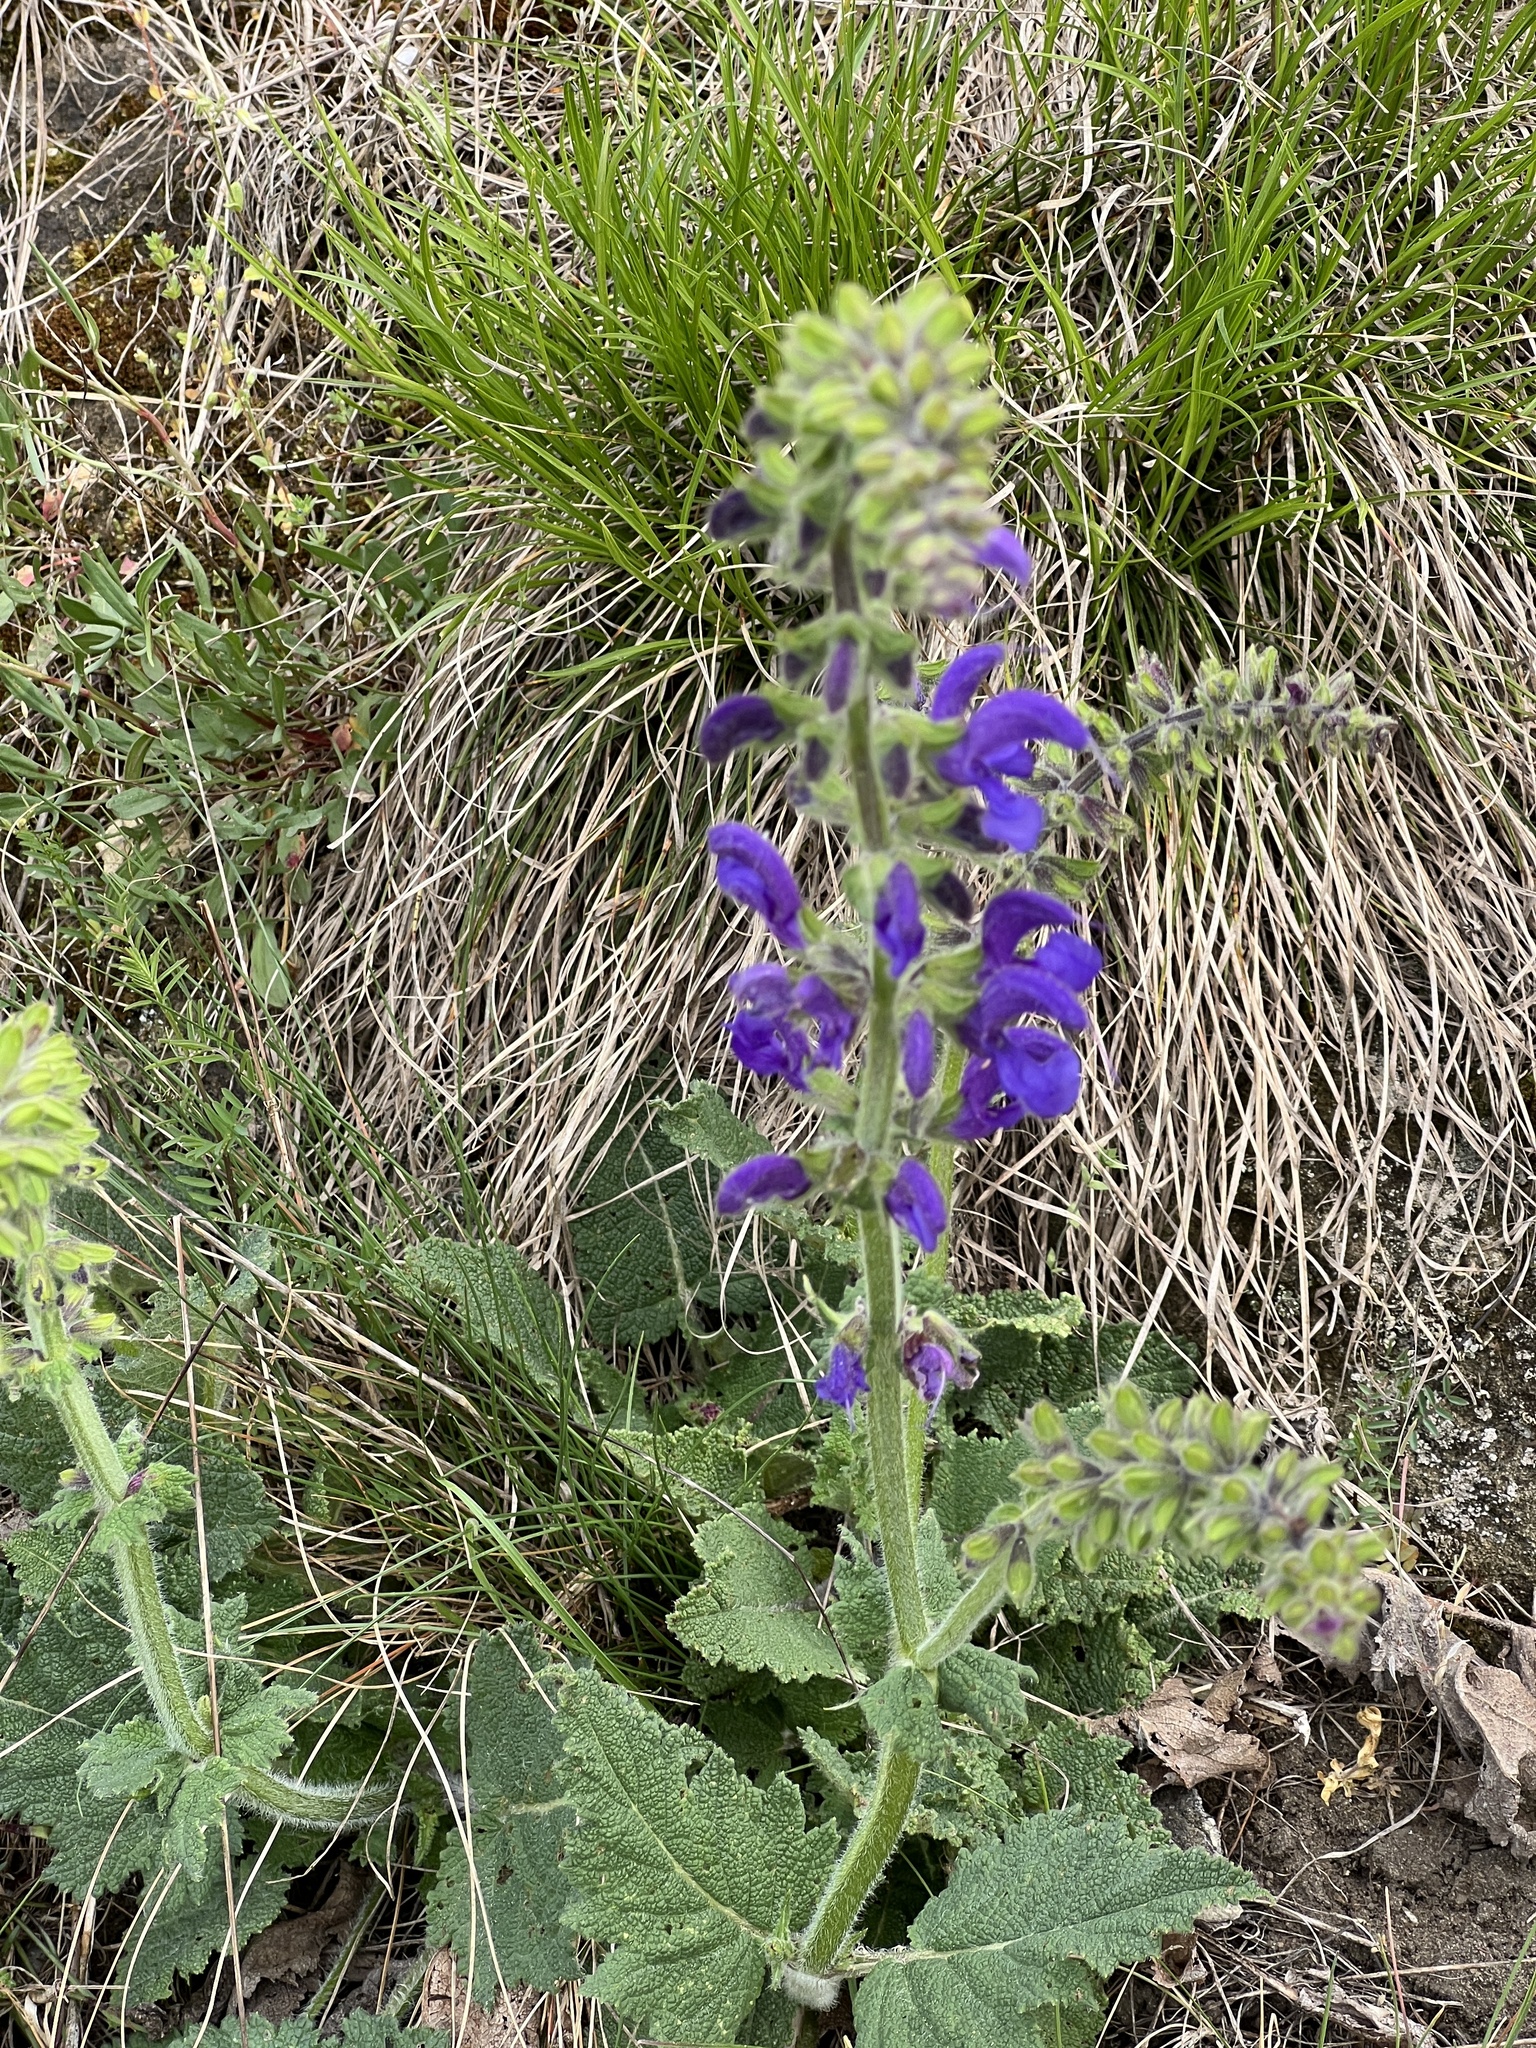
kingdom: Plantae
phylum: Tracheophyta
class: Magnoliopsida
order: Lamiales
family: Lamiaceae
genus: Salvia
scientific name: Salvia pratensis
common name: Meadow sage
